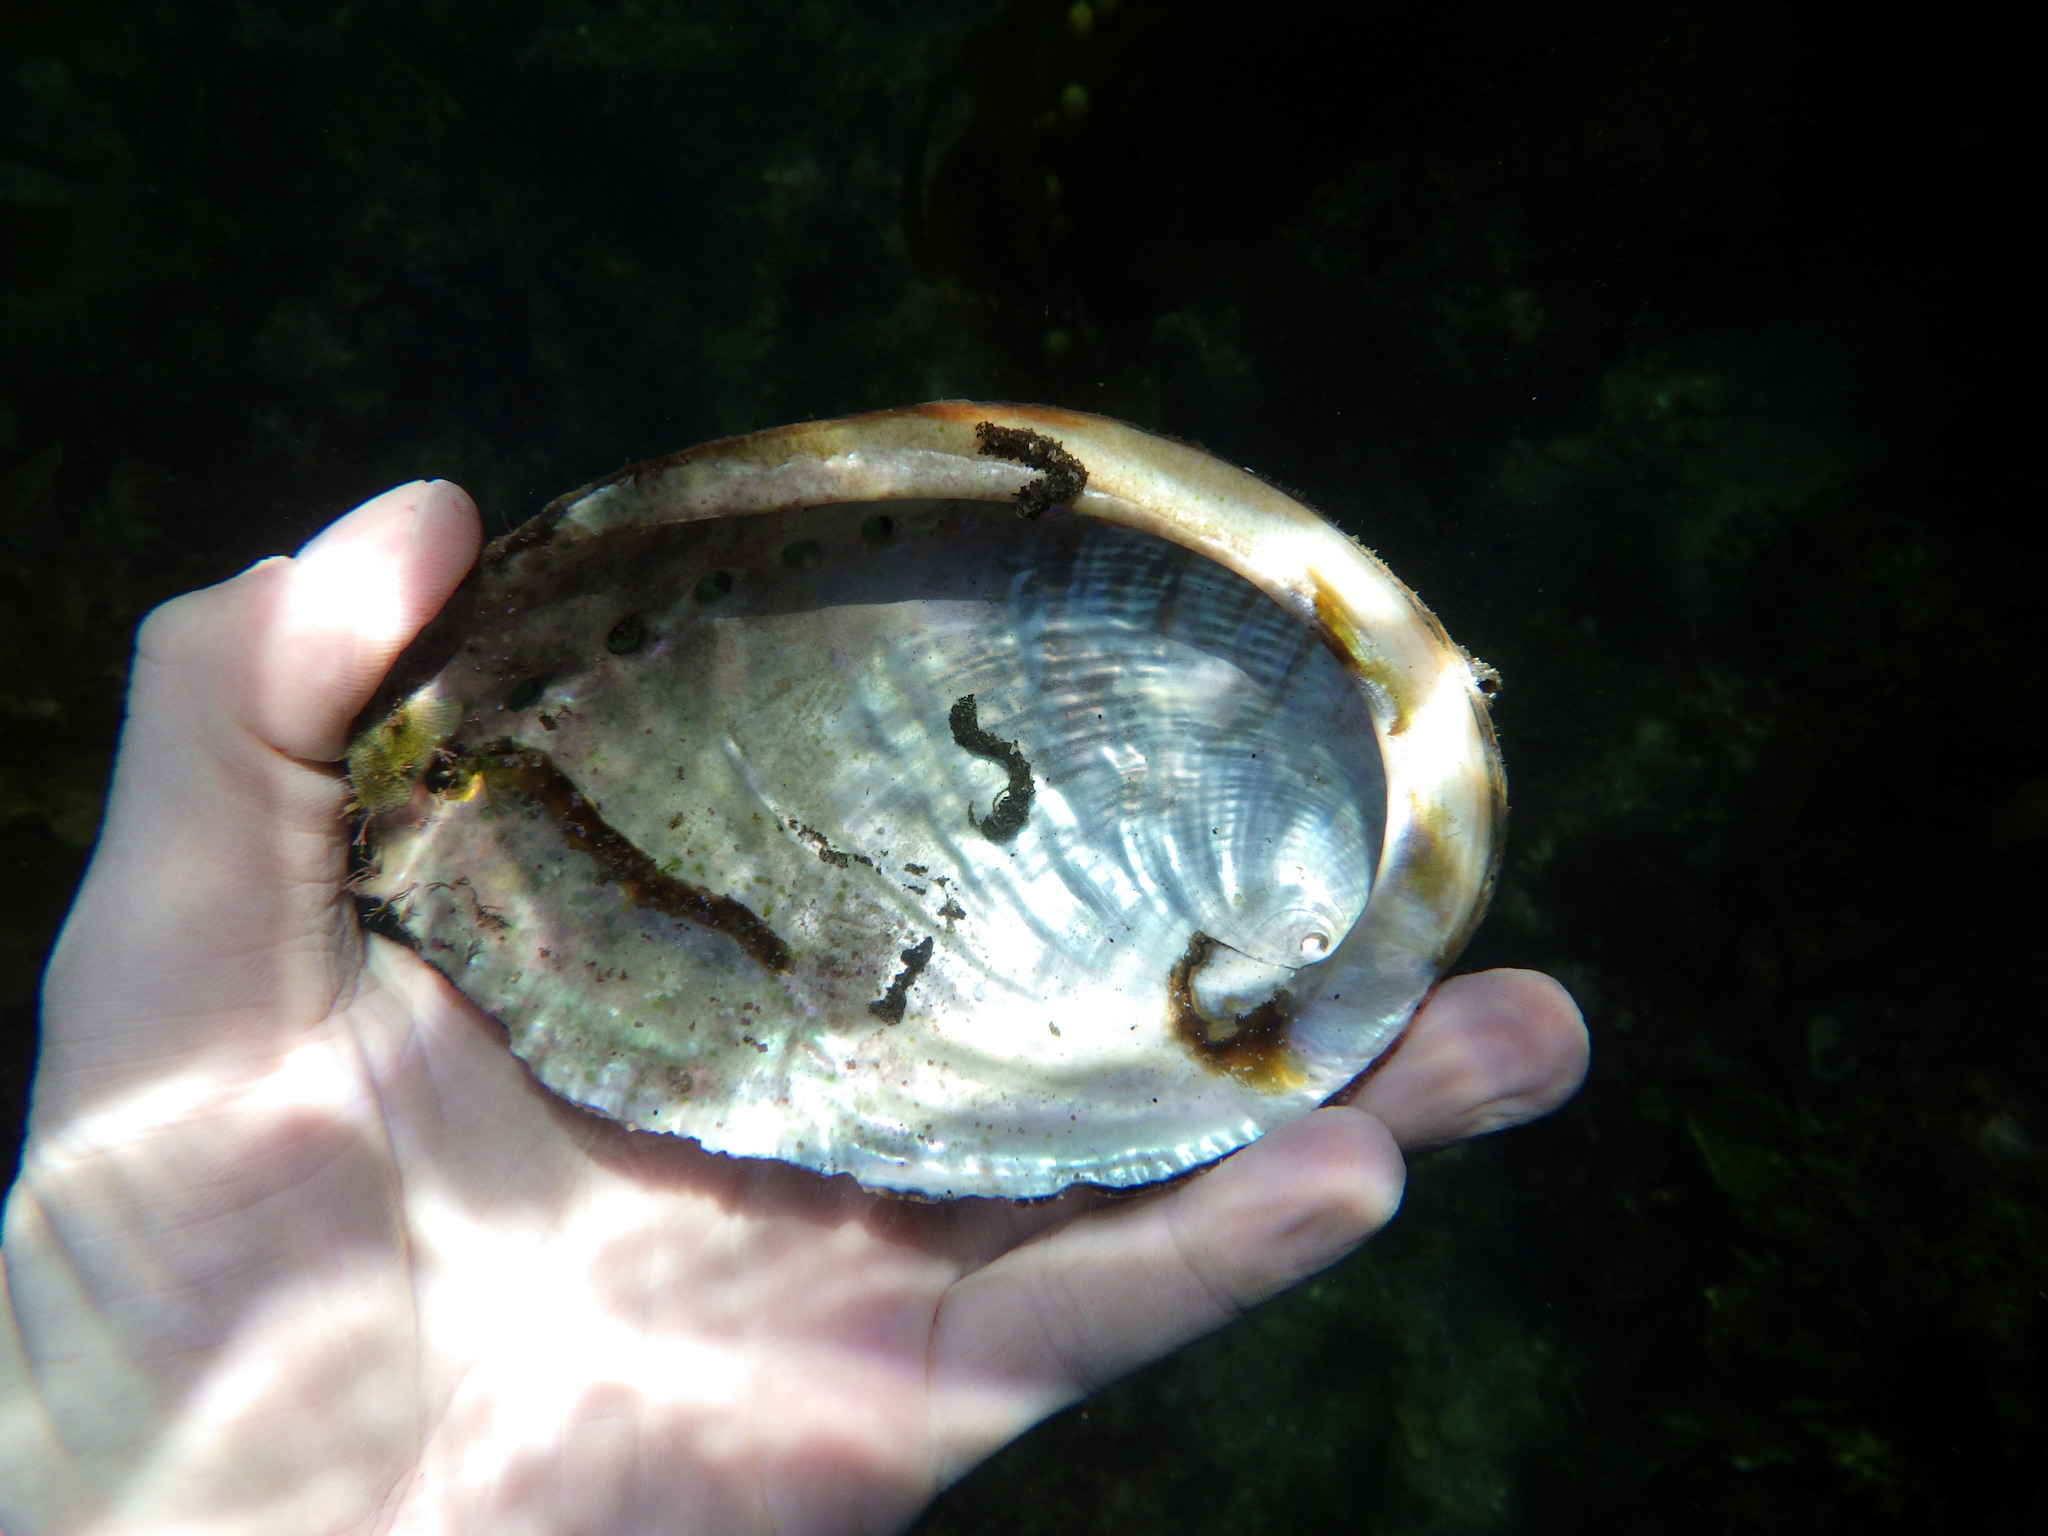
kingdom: Animalia
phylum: Mollusca
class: Gastropoda
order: Lepetellida
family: Haliotidae
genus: Haliotis
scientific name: Haliotis fulgens
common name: Green abalone
